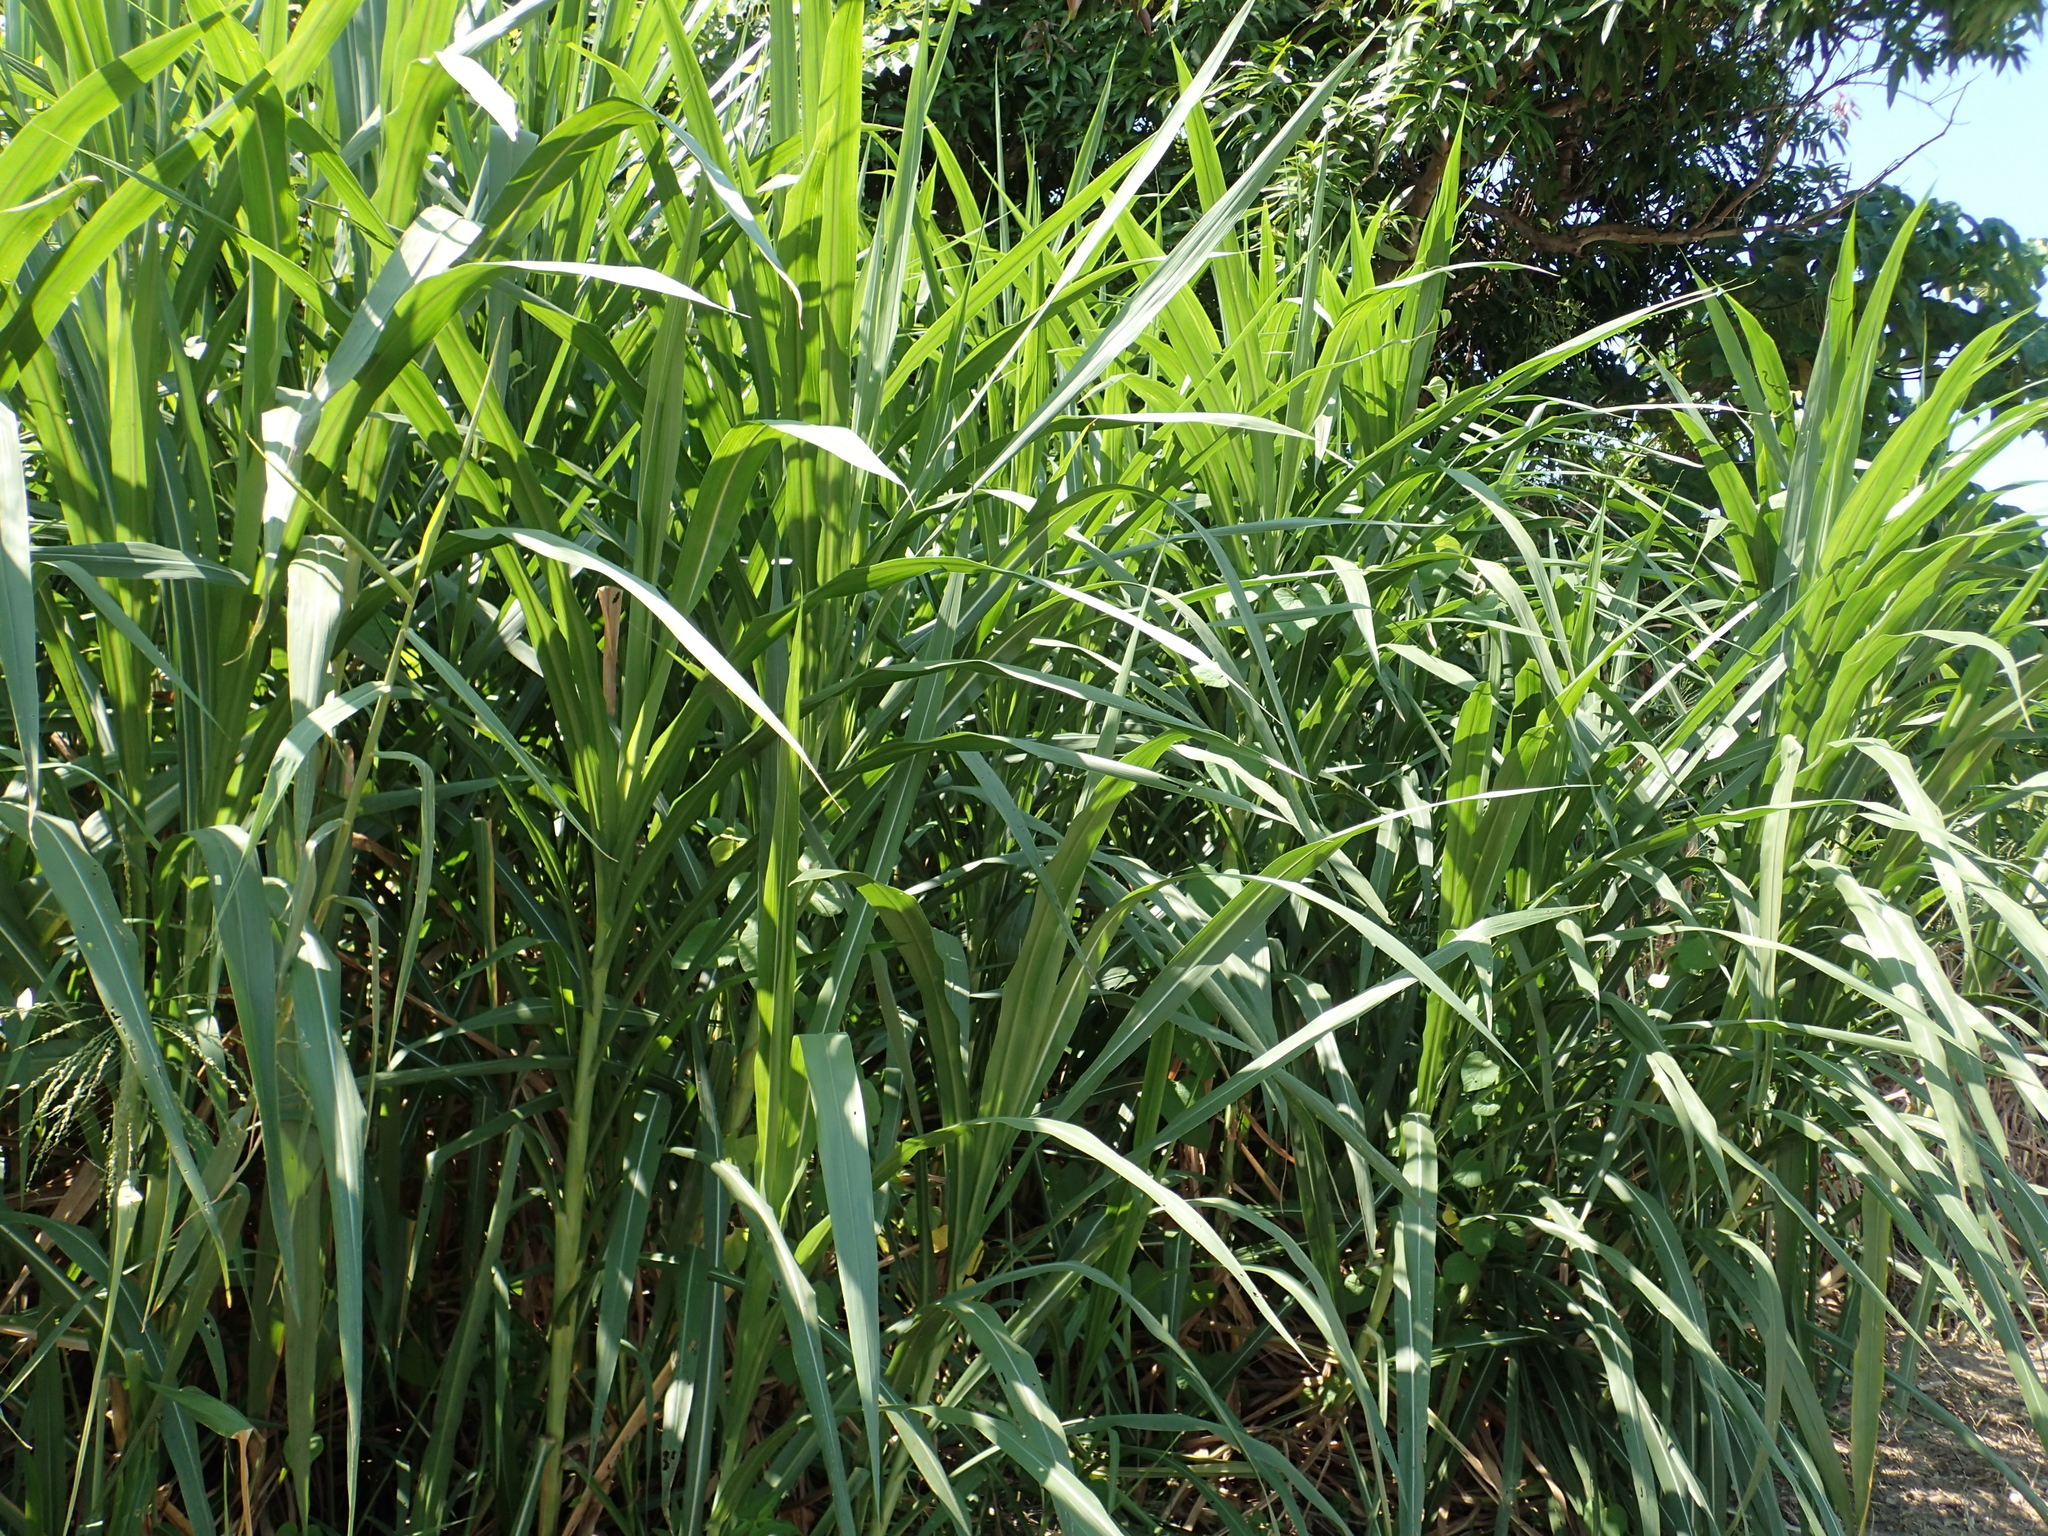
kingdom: Plantae
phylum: Tracheophyta
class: Liliopsida
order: Poales
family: Poaceae
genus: Cenchrus
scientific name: Cenchrus purpureus
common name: Elephant grass
